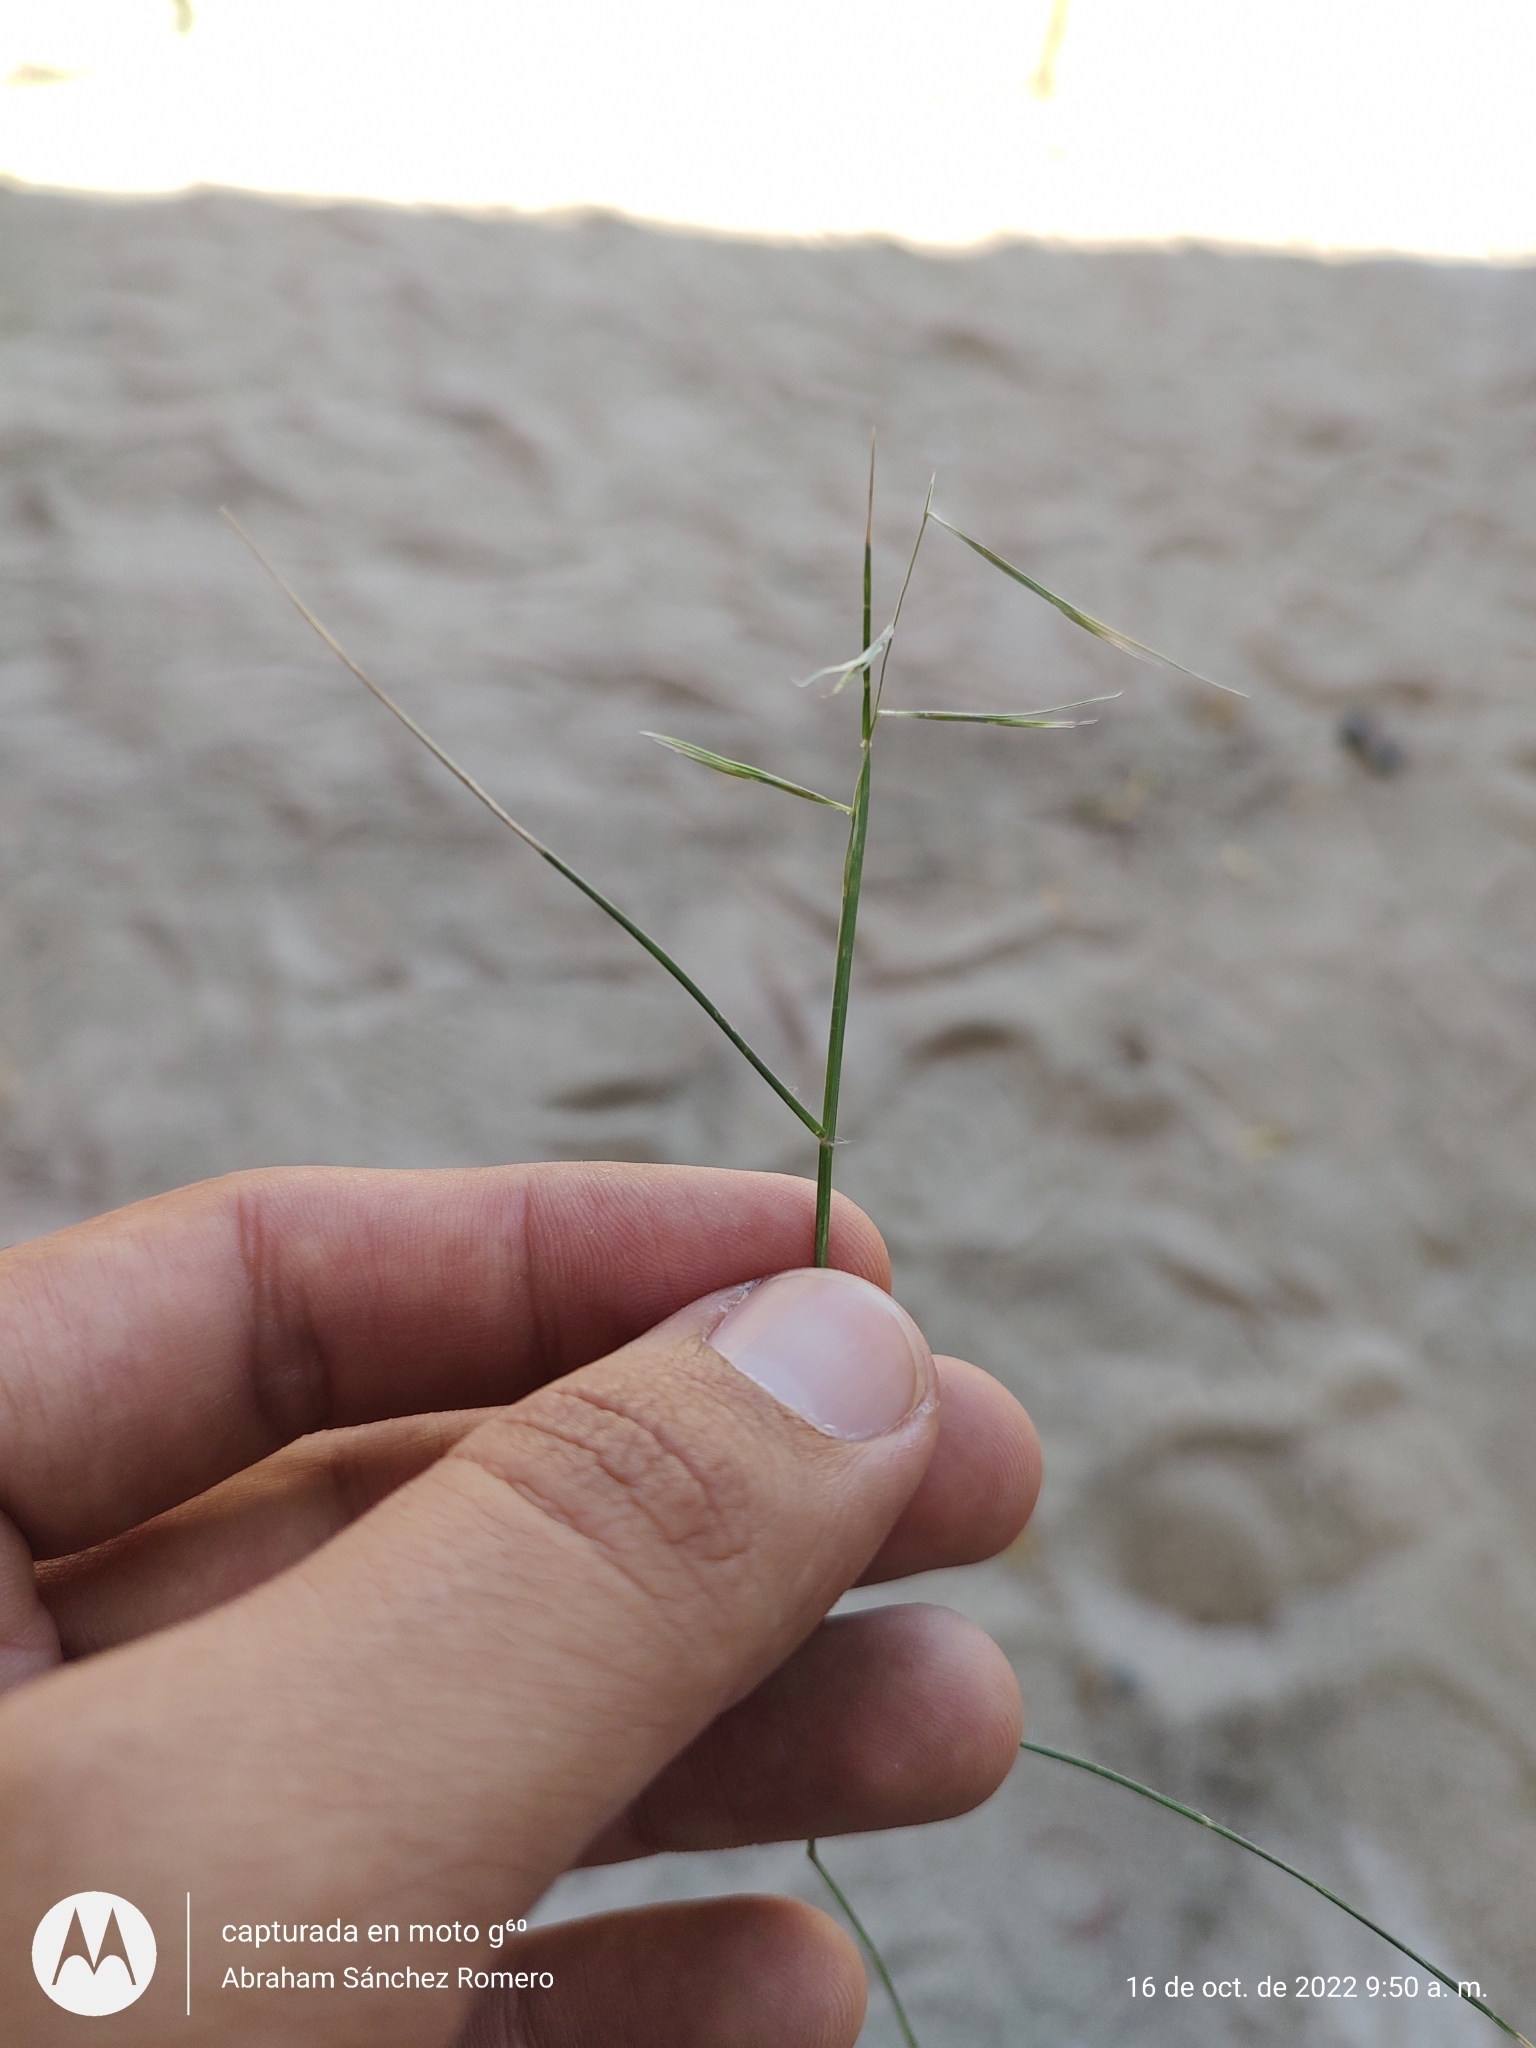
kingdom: Plantae
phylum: Tracheophyta
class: Liliopsida
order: Poales
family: Poaceae
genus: Bouteloua
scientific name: Bouteloua aristidoides
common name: Needle grama
